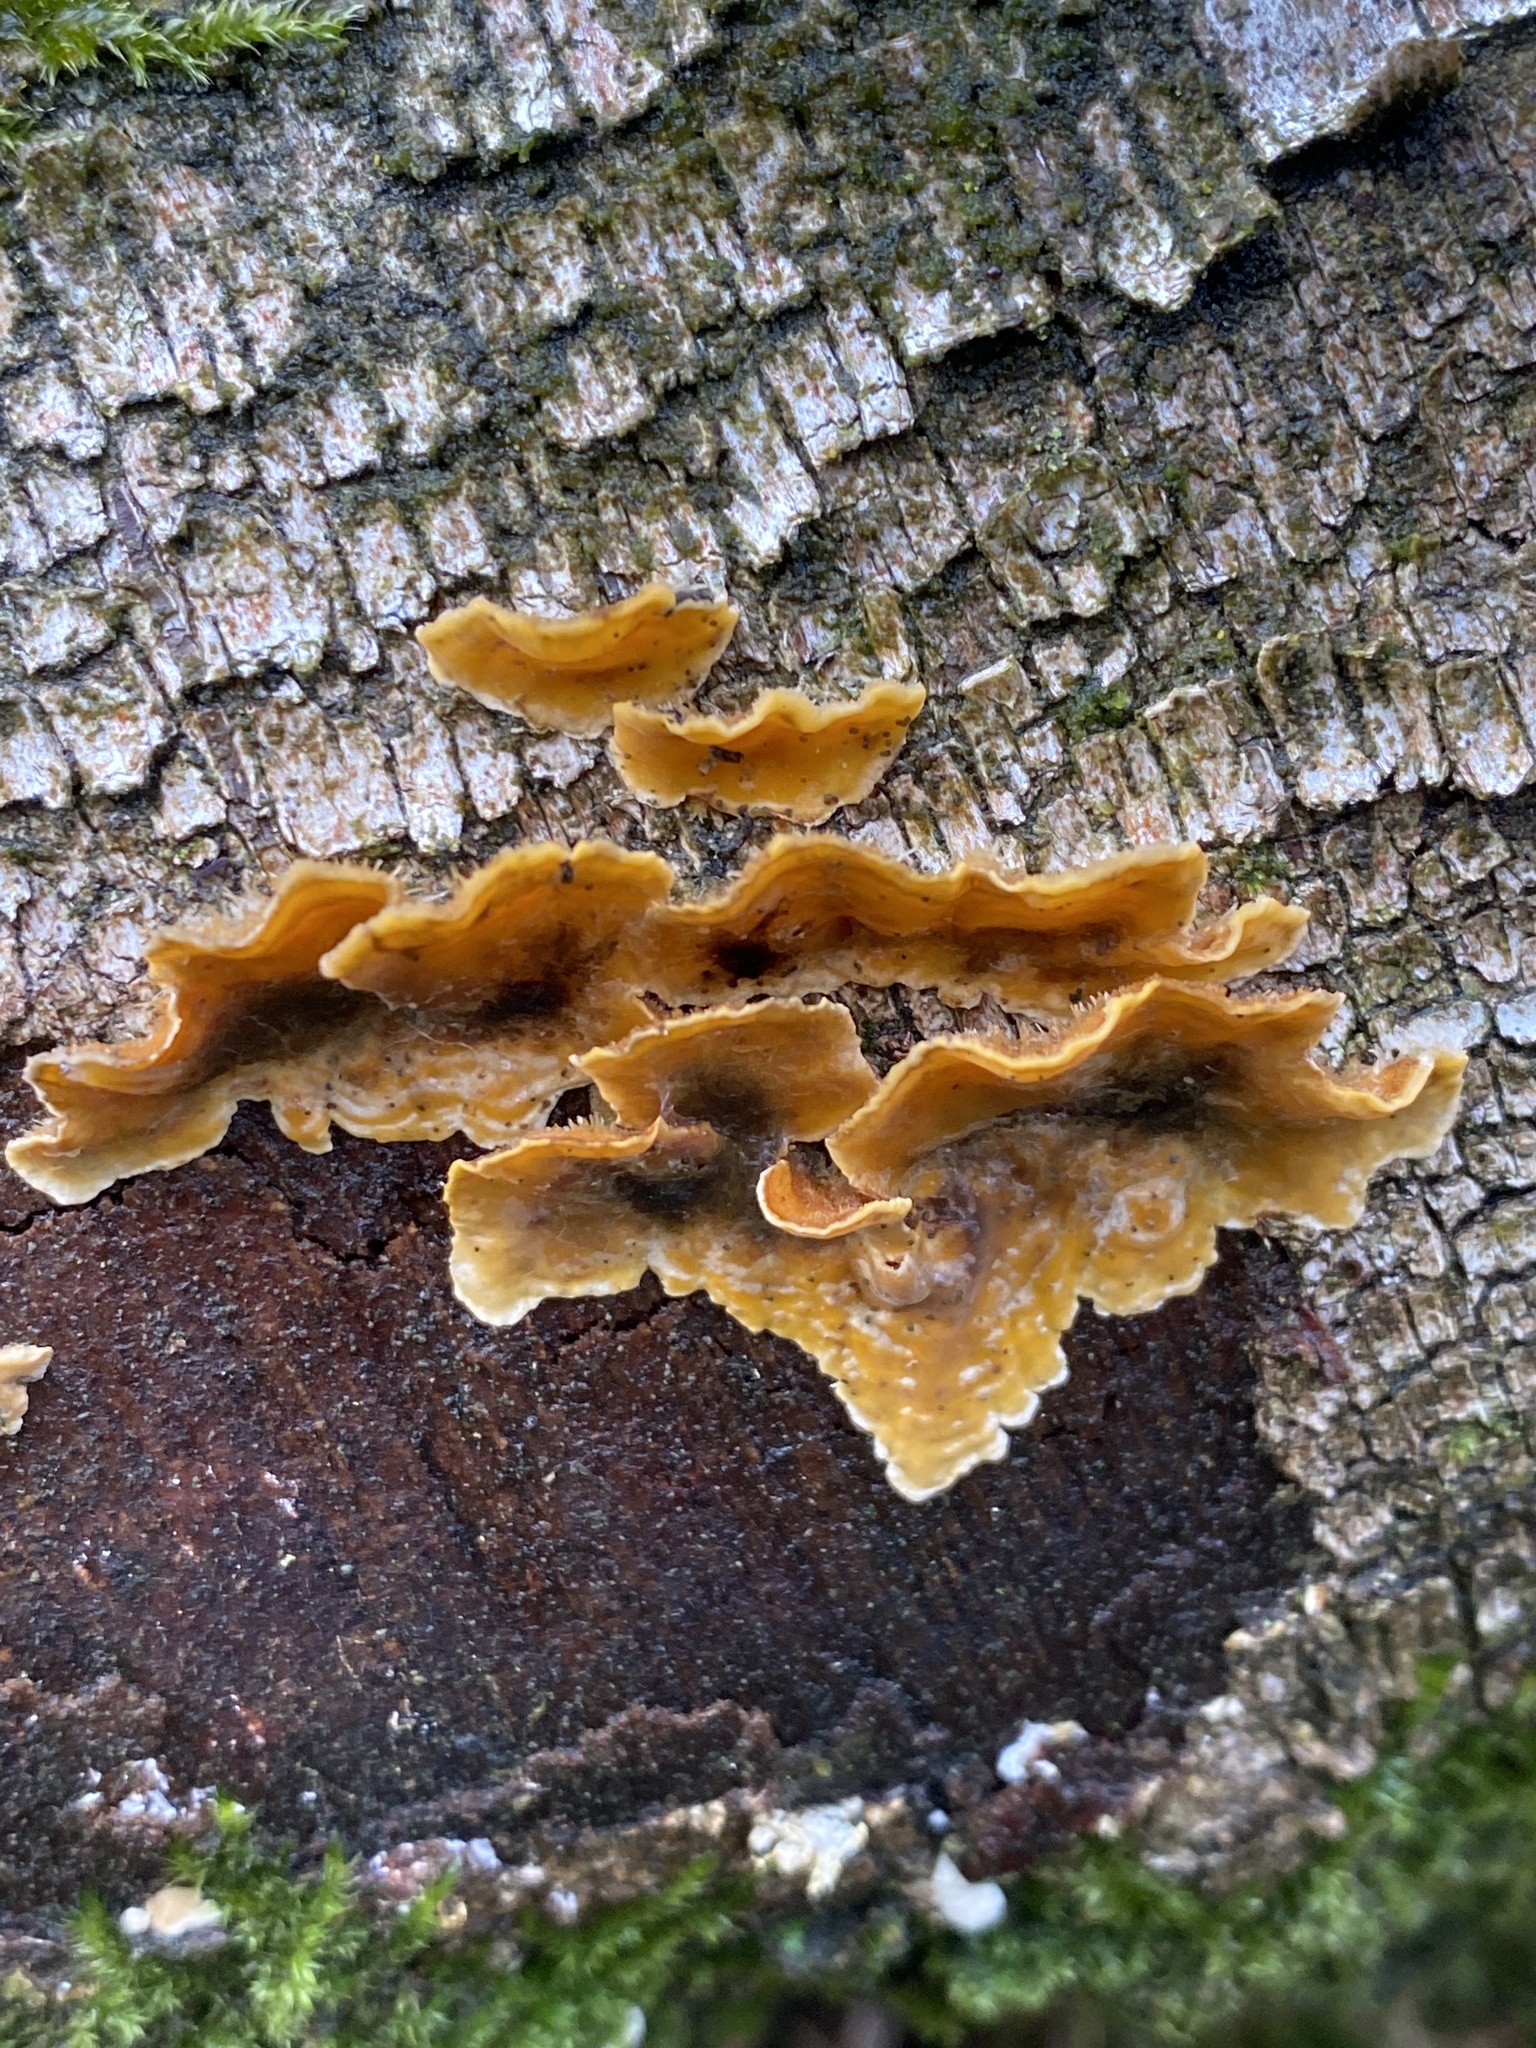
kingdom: Fungi
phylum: Basidiomycota
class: Agaricomycetes
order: Russulales
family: Stereaceae
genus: Stereum
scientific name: Stereum hirsutum
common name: Hairy curtain crust
